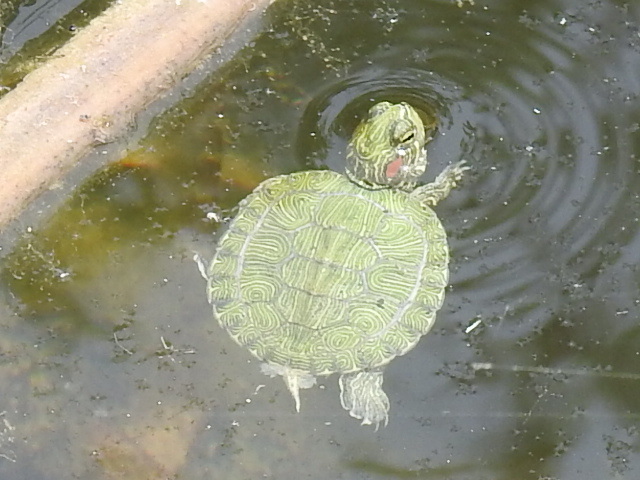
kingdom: Animalia
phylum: Chordata
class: Testudines
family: Emydidae
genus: Trachemys
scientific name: Trachemys scripta
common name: Slider
